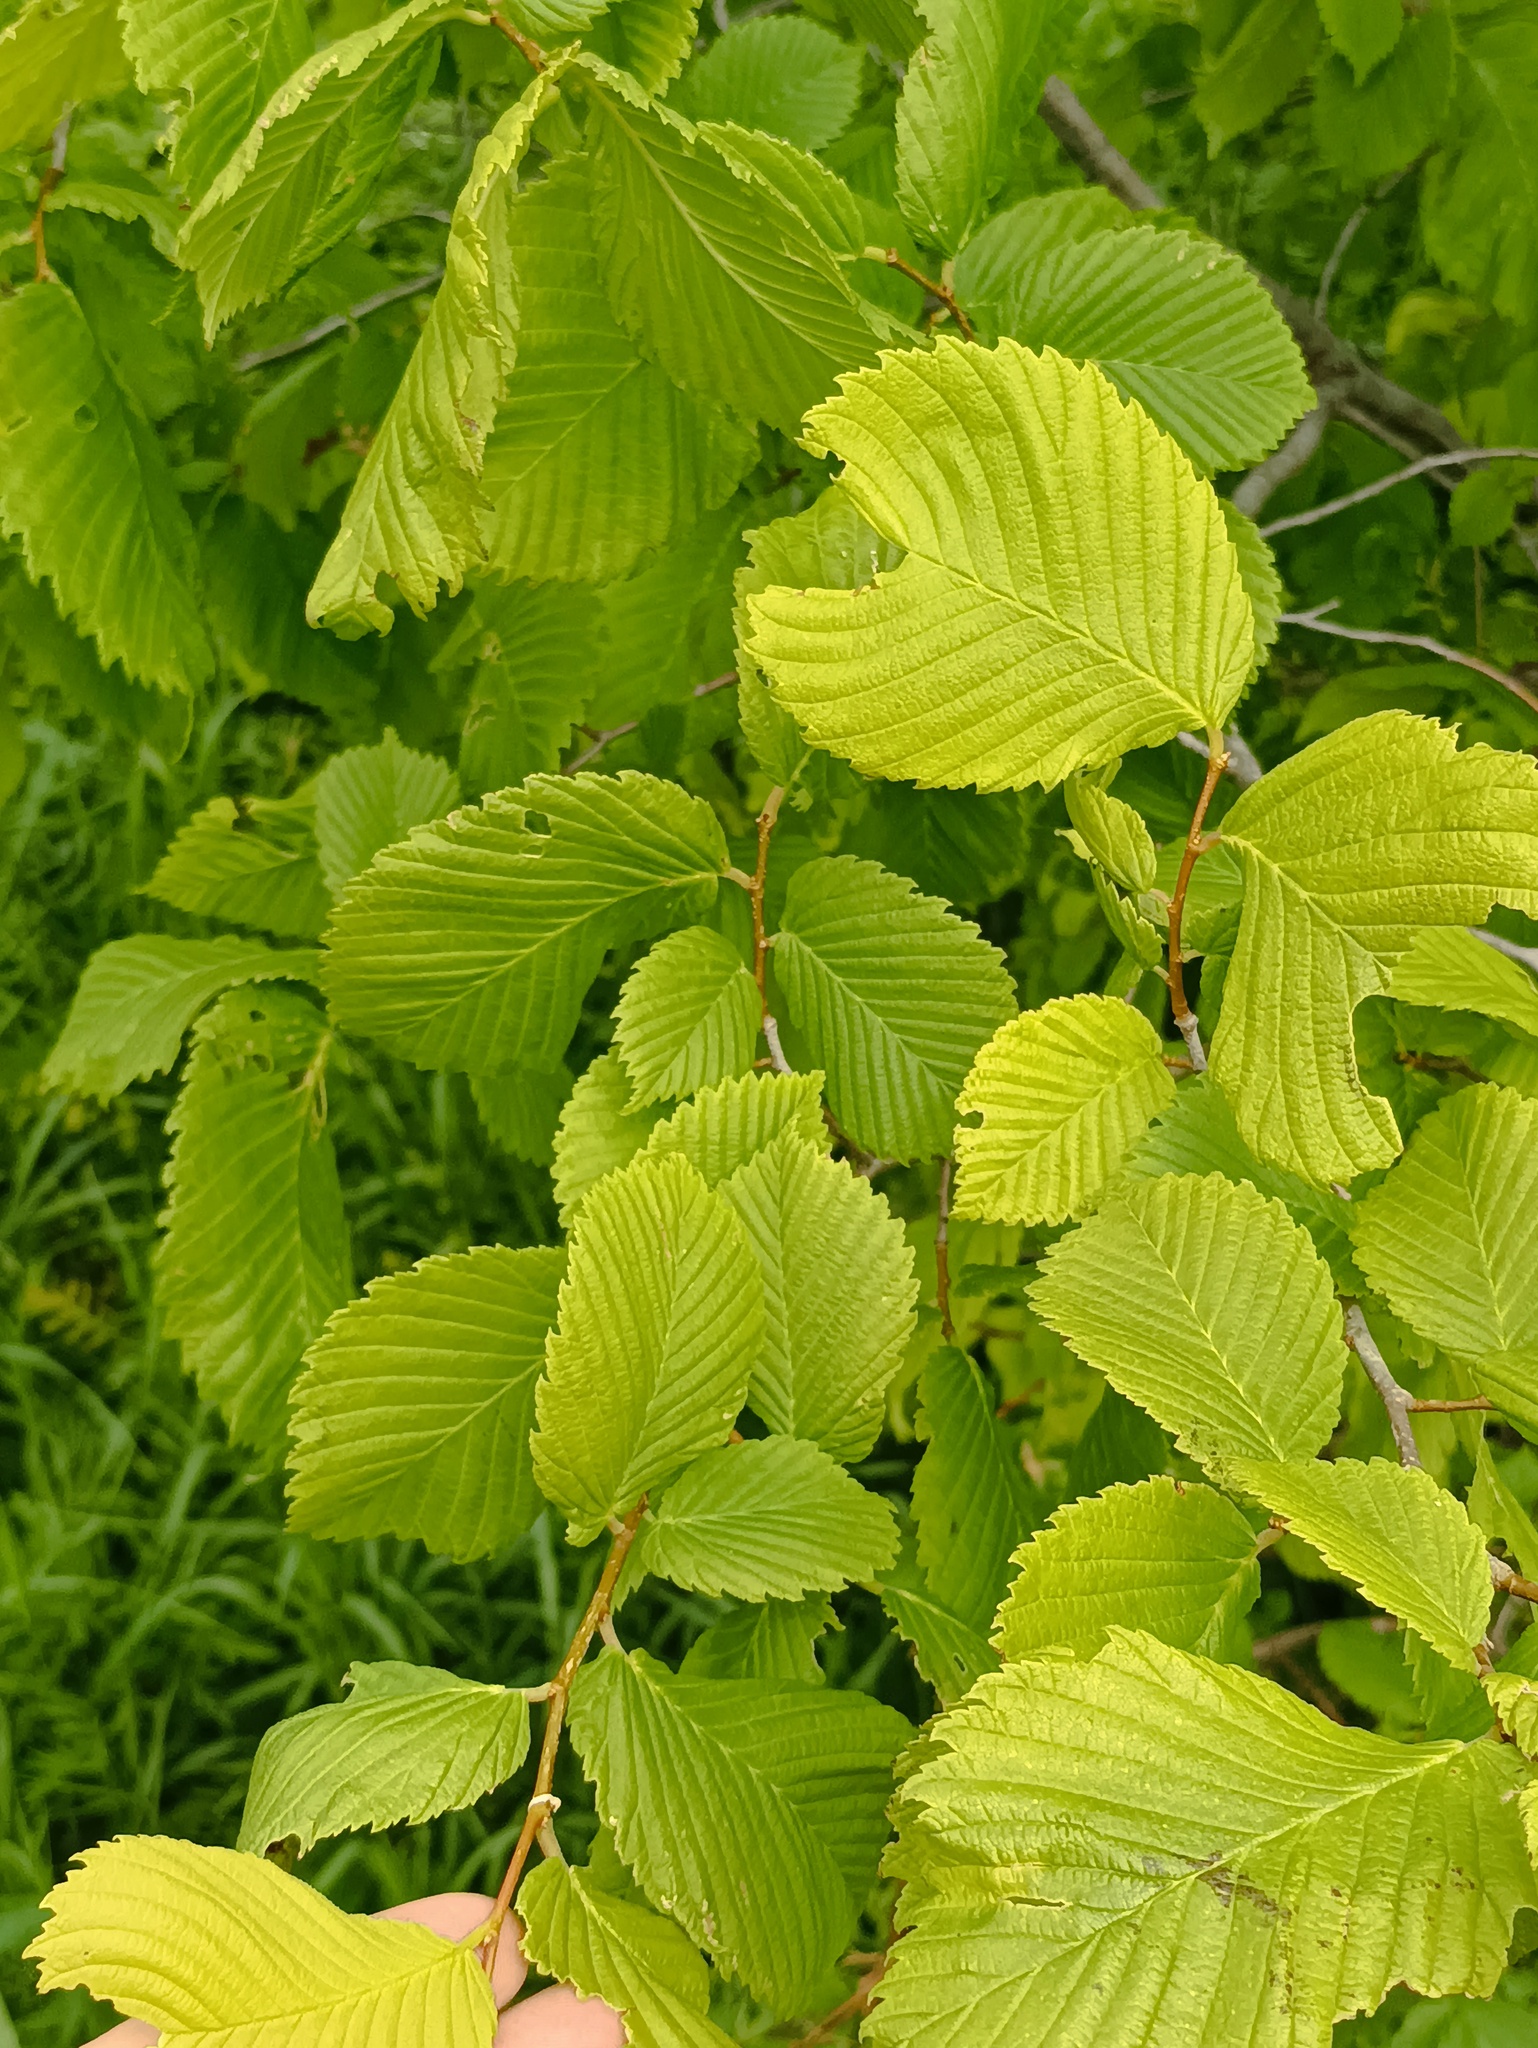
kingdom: Plantae
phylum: Tracheophyta
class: Magnoliopsida
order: Rosales
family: Ulmaceae
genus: Ulmus
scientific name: Ulmus laevis
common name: European white-elm
